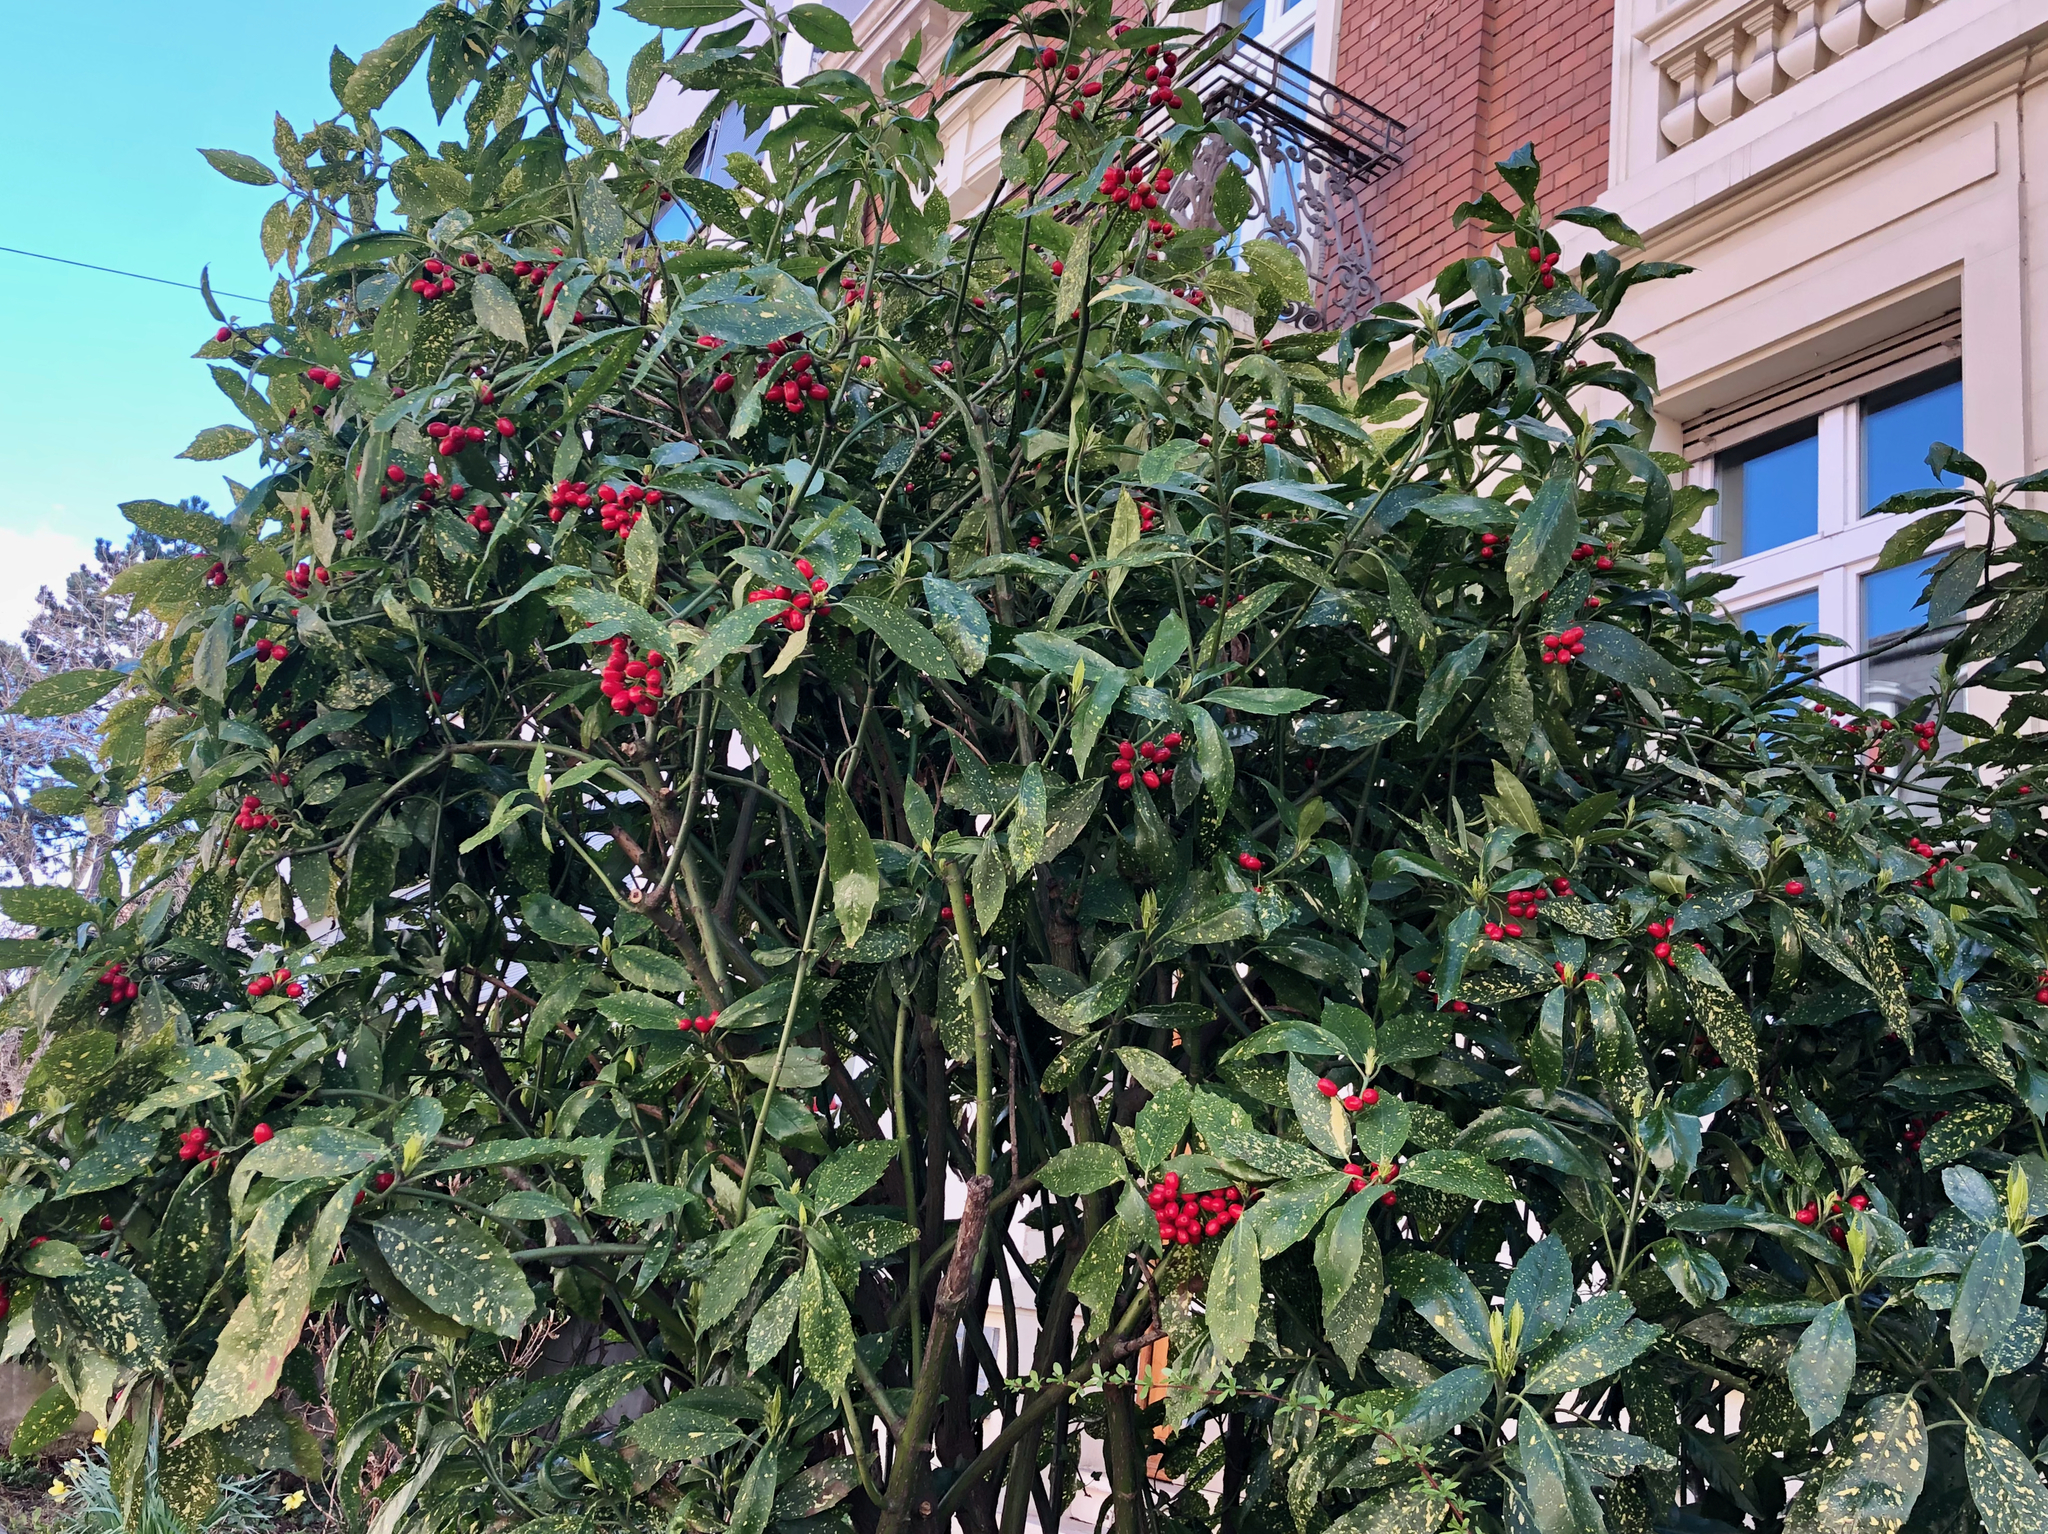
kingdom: Plantae
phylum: Tracheophyta
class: Magnoliopsida
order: Garryales
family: Garryaceae
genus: Aucuba
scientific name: Aucuba japonica
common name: Spotted-laurel
